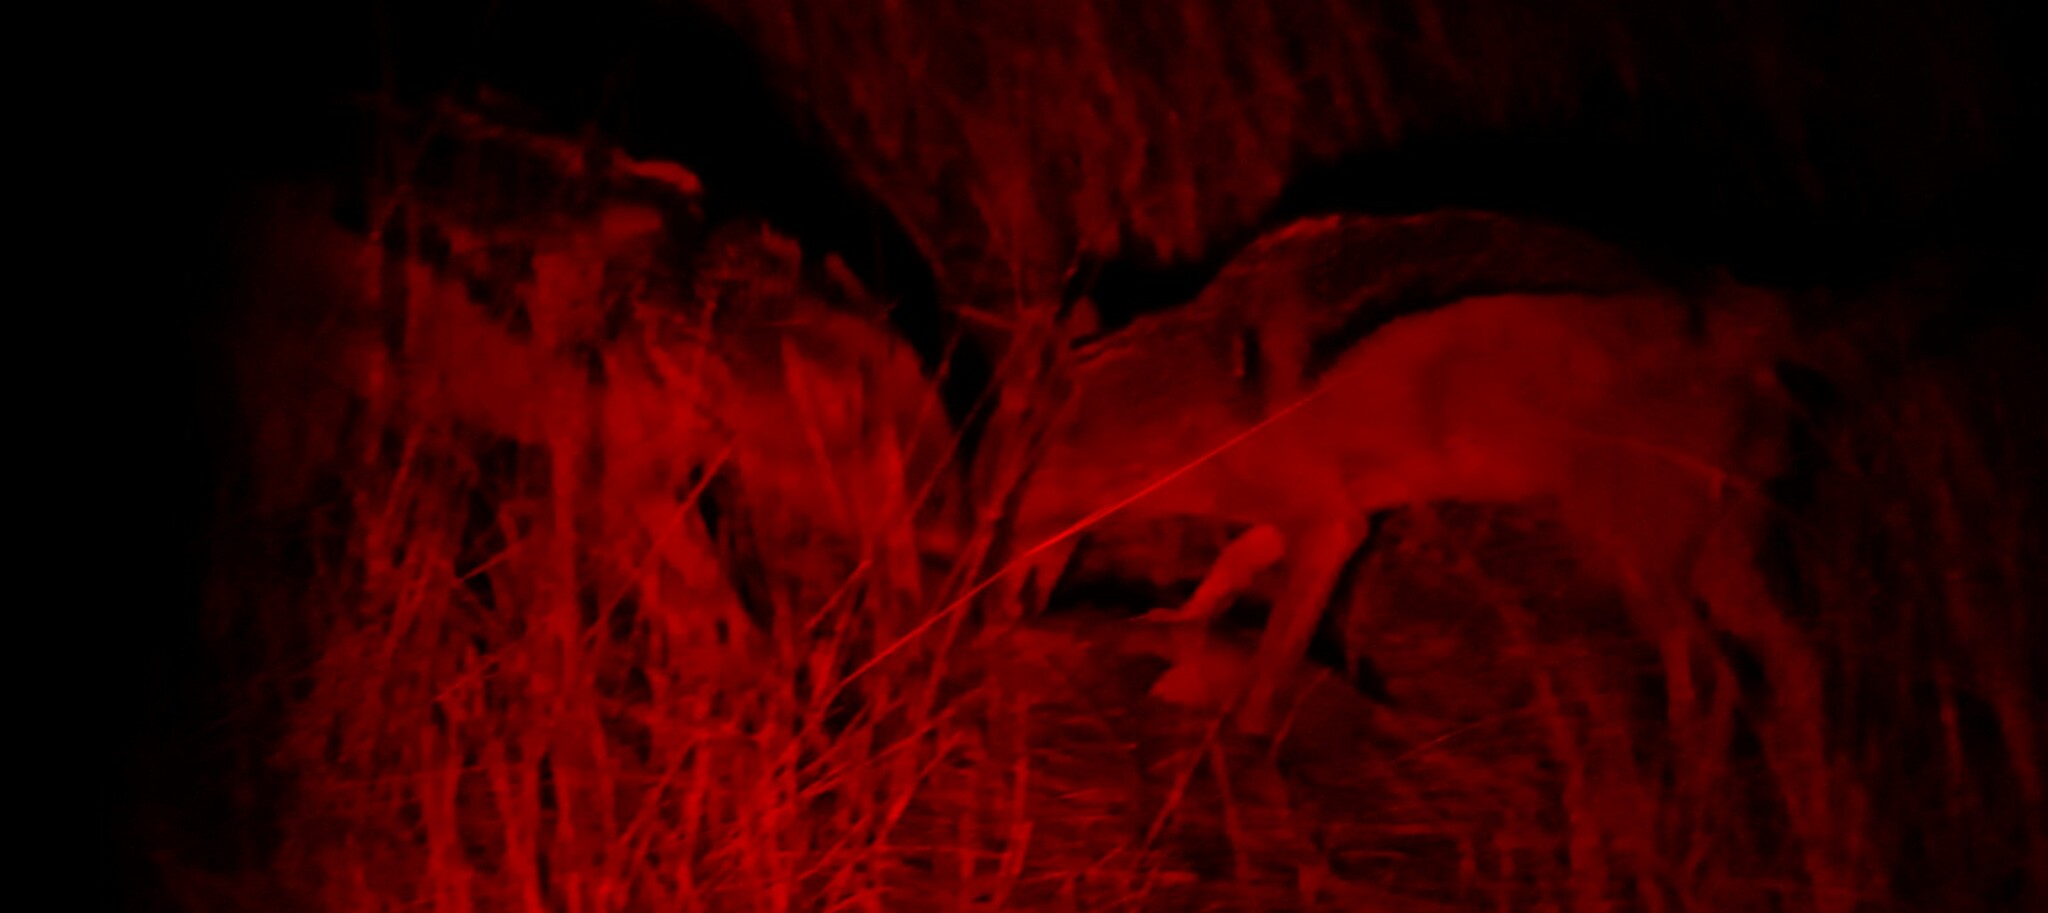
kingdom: Animalia
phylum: Chordata
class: Mammalia
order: Carnivora
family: Canidae
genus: Lupulella
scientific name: Lupulella
